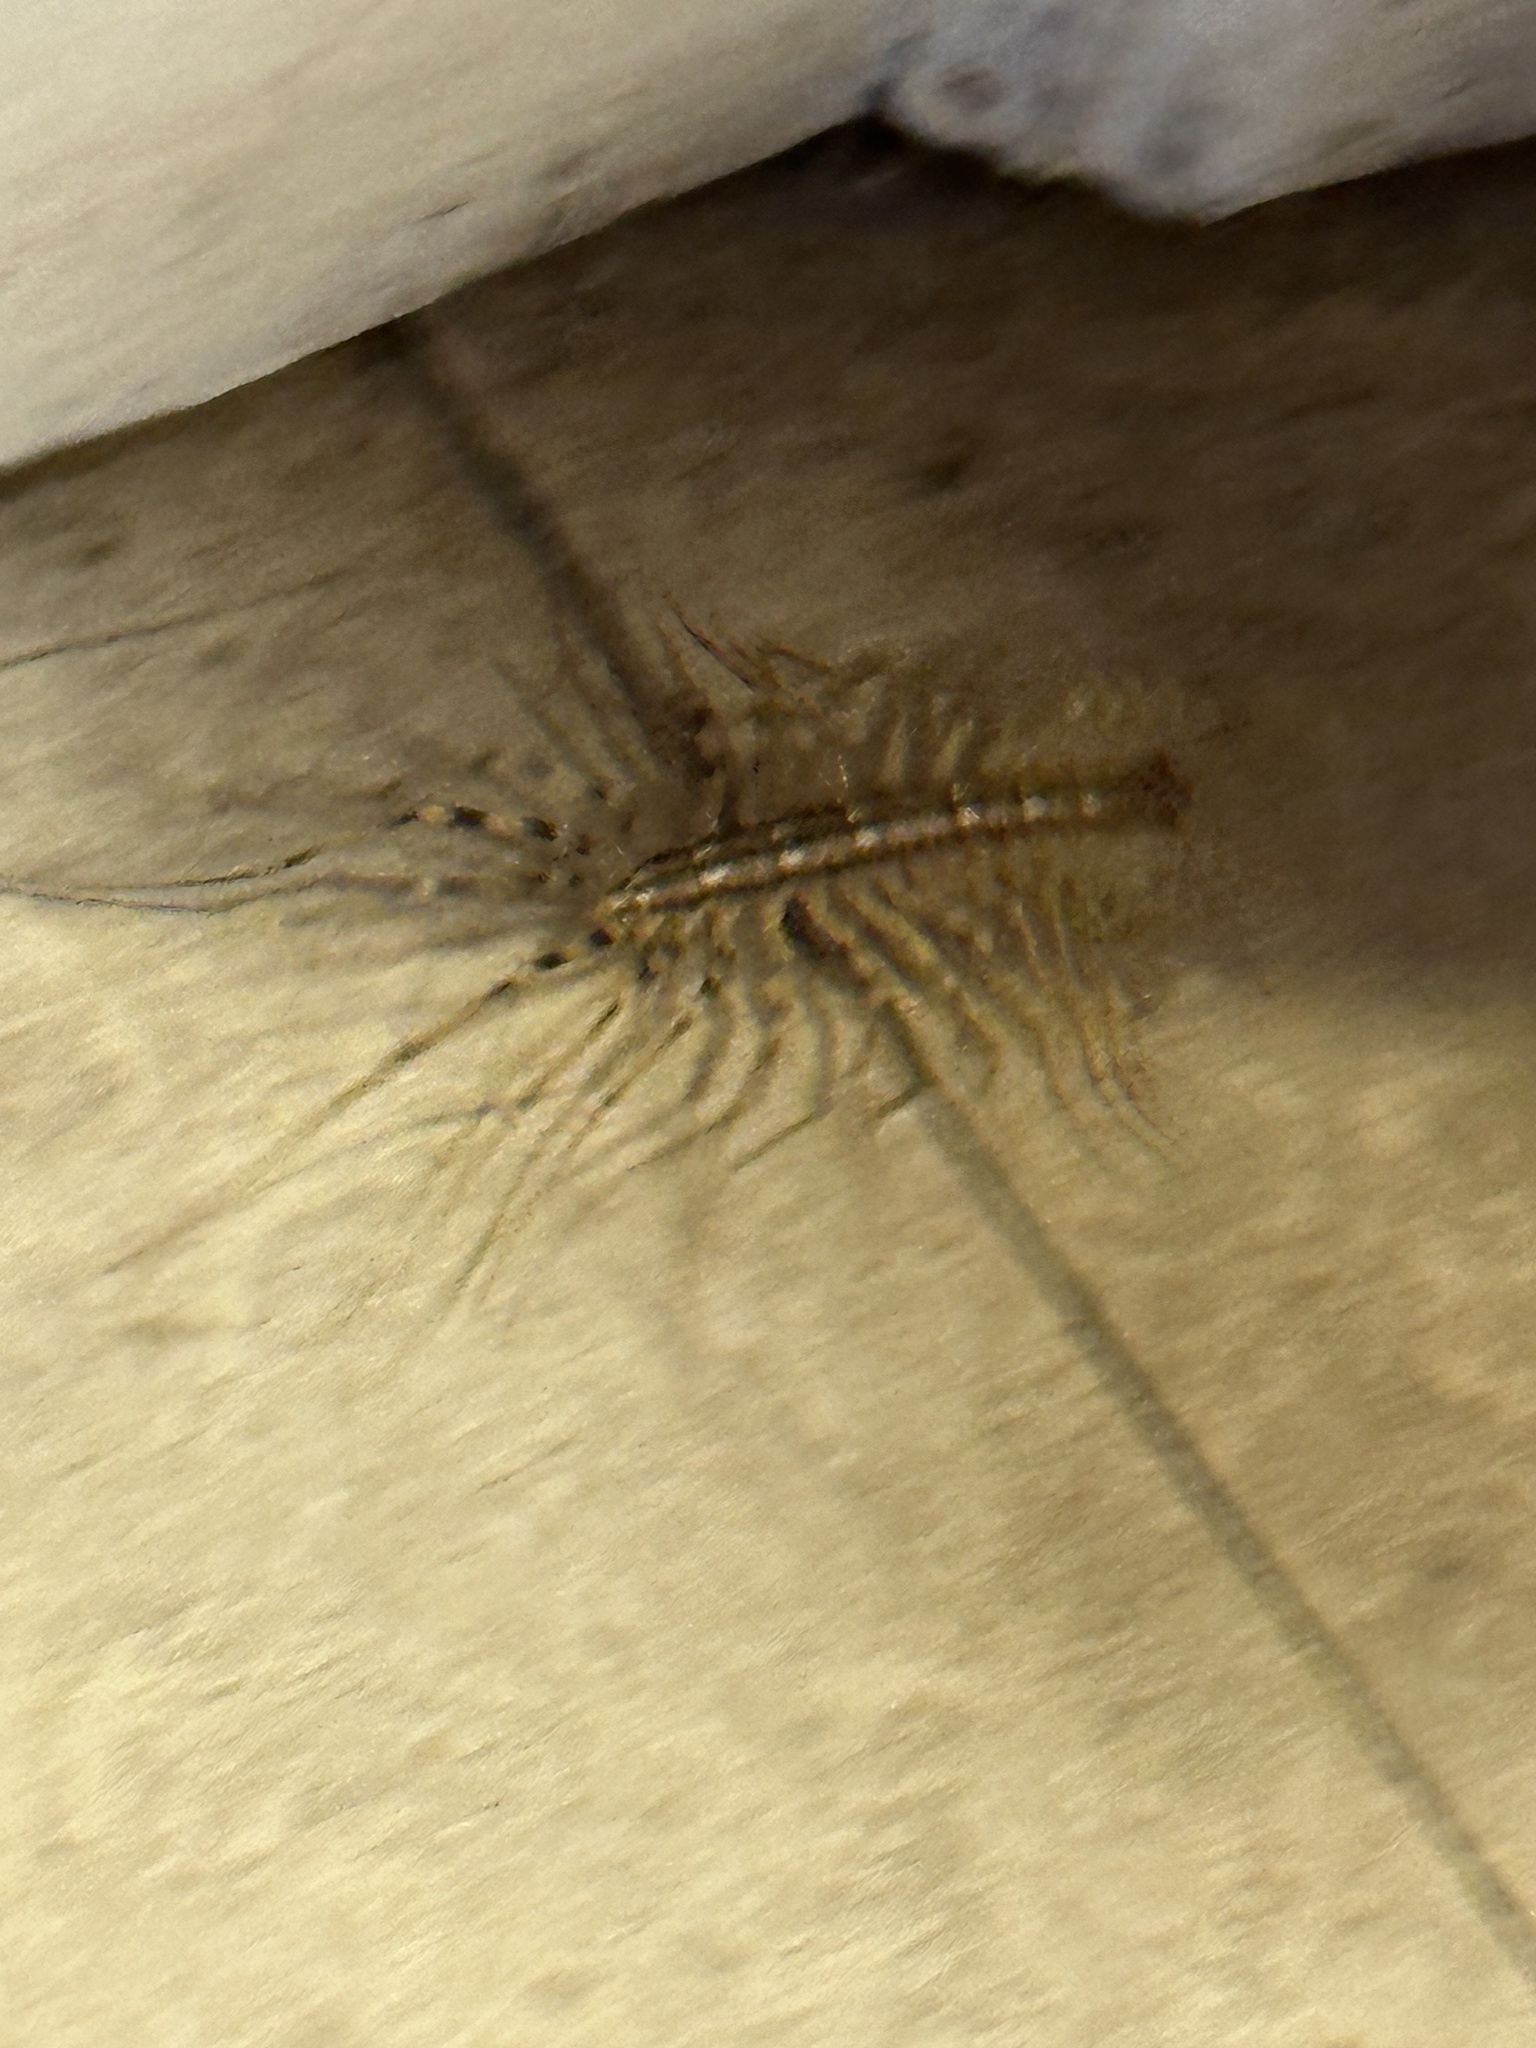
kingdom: Animalia
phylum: Arthropoda
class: Chilopoda
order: Scutigeromorpha
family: Scutigeridae
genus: Scutigera
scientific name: Scutigera coleoptrata
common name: House centipede
